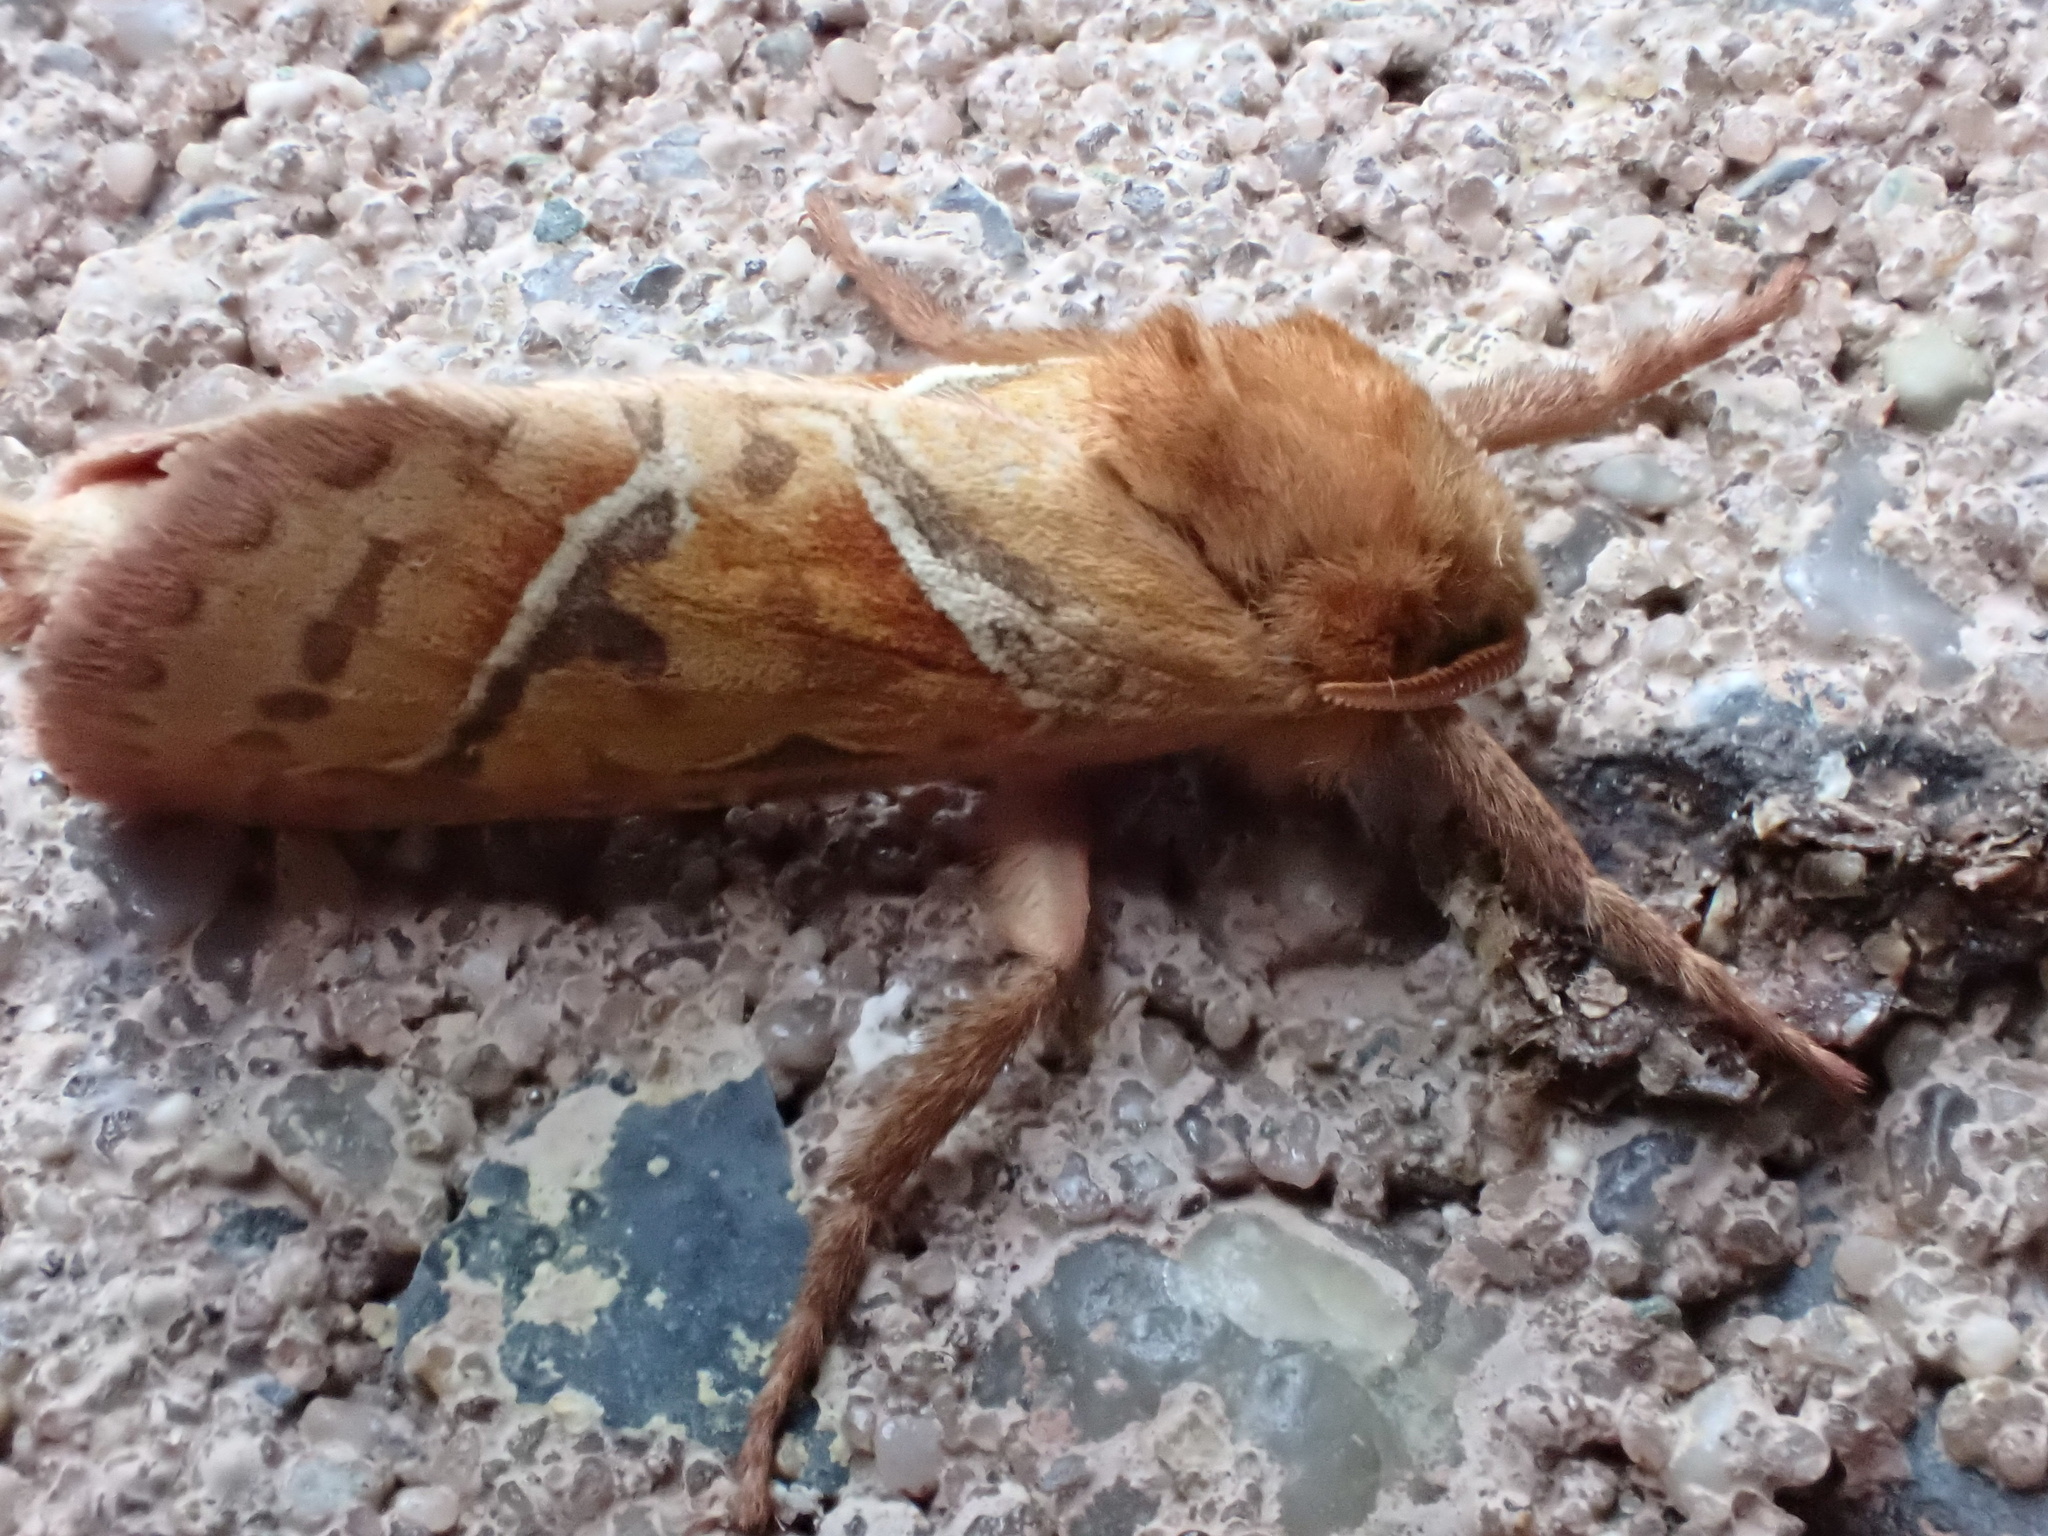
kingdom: Animalia
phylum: Arthropoda
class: Insecta
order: Lepidoptera
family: Hepialidae
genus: Triodia
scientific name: Triodia sylvina
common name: Orange swift
